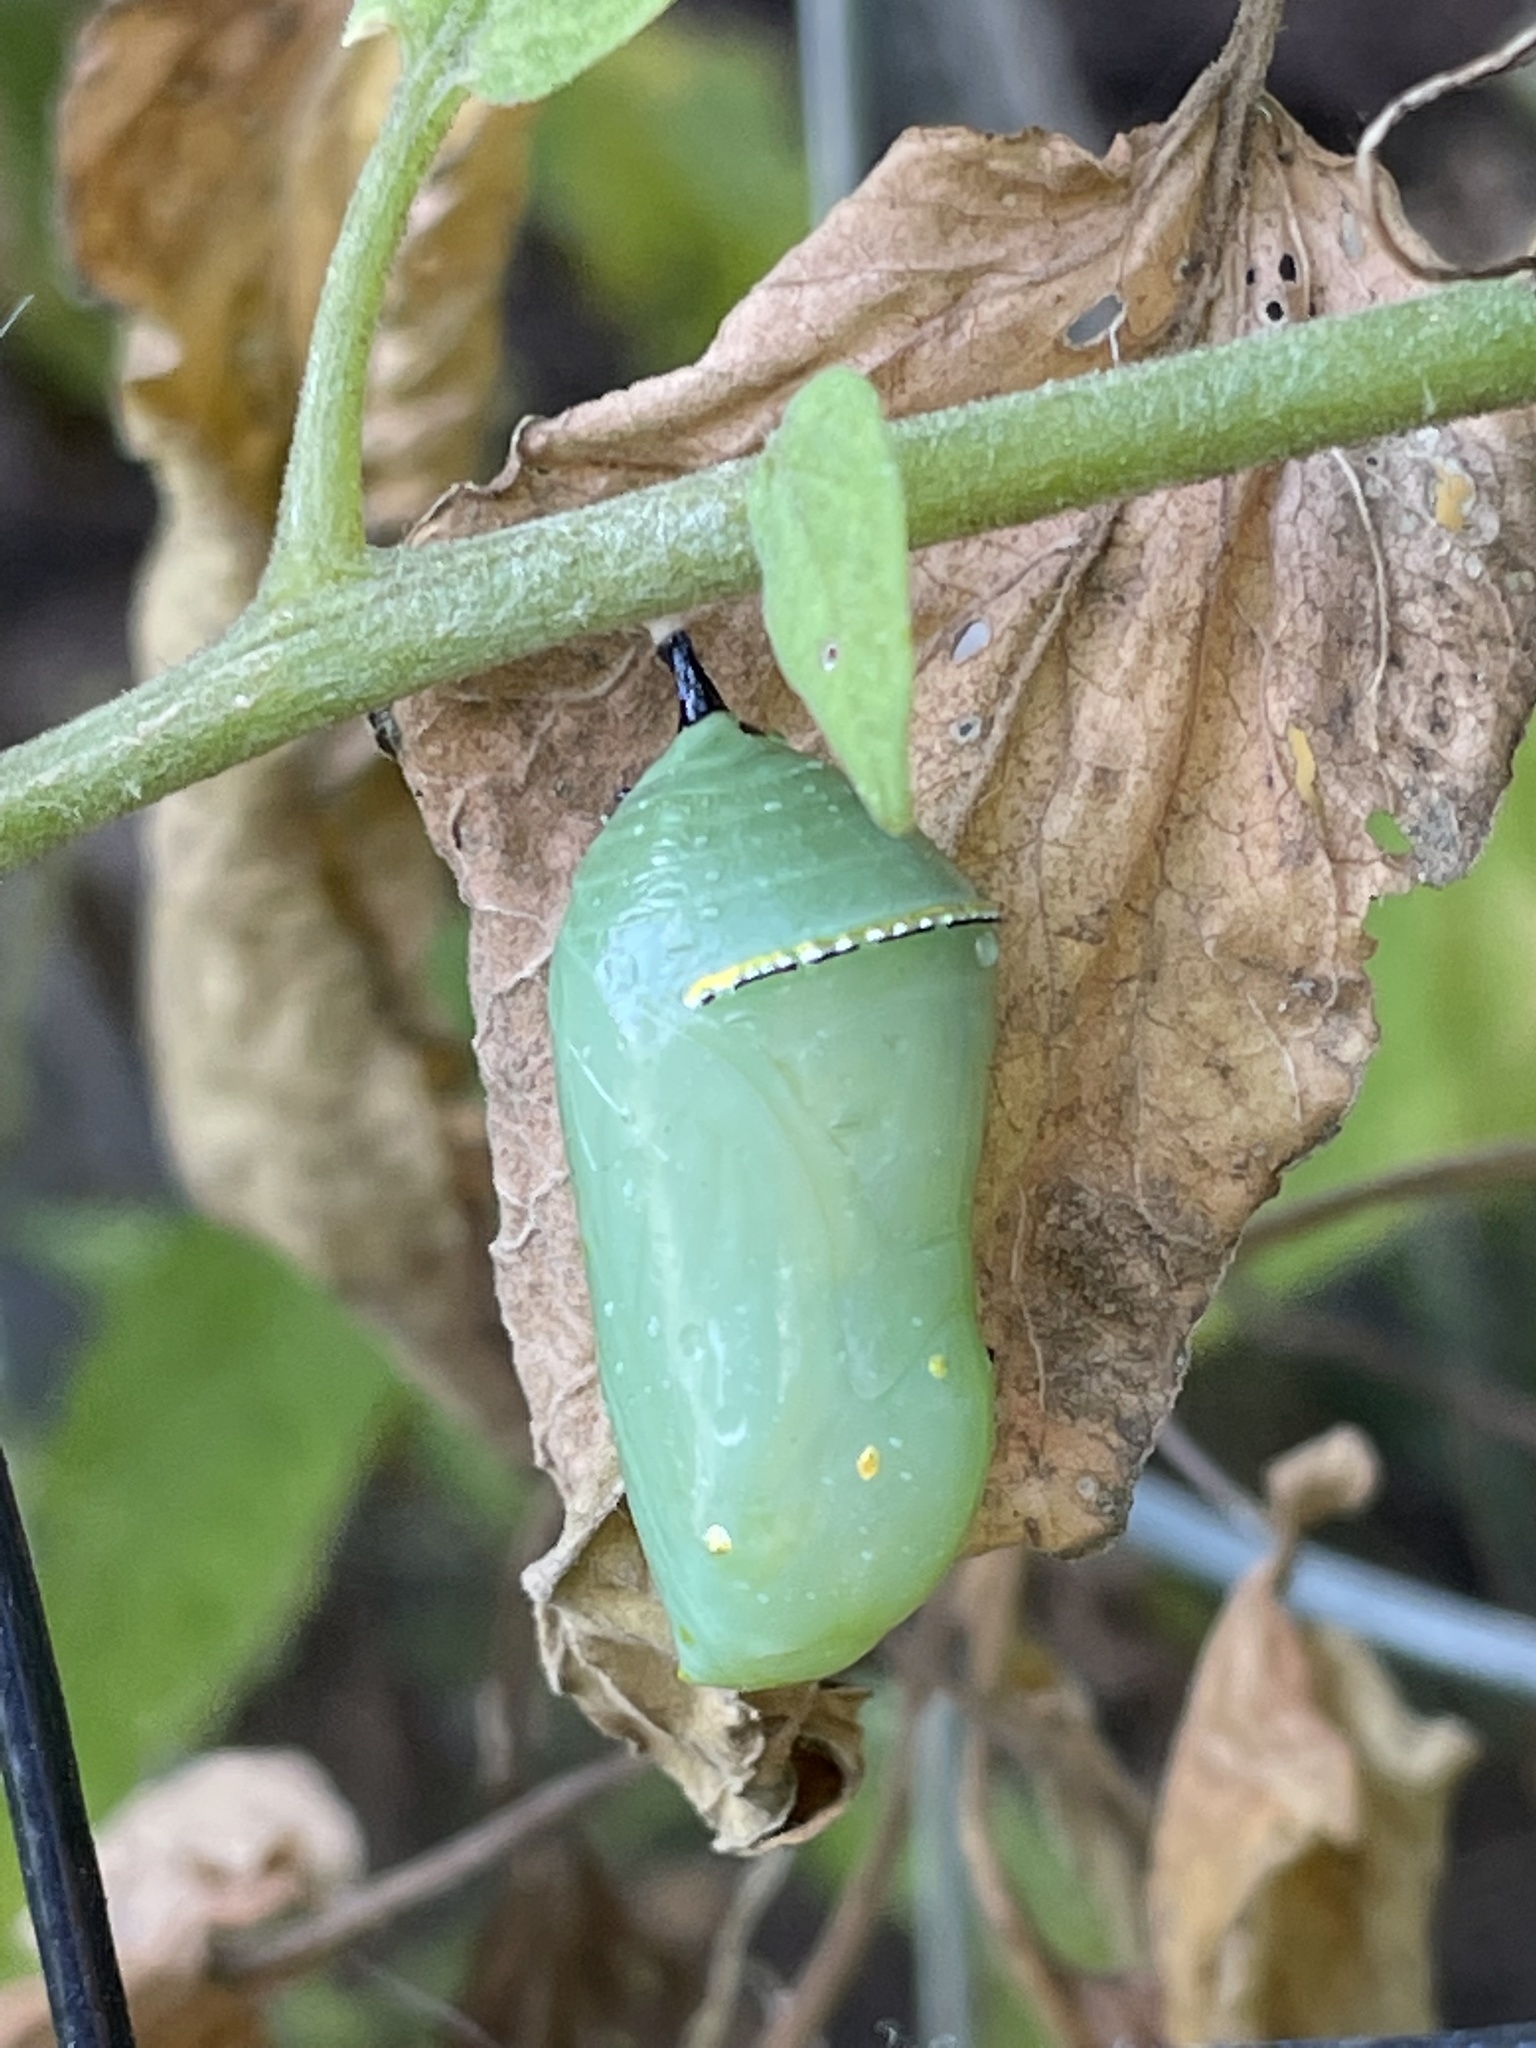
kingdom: Animalia
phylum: Arthropoda
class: Insecta
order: Lepidoptera
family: Nymphalidae
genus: Danaus
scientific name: Danaus plexippus
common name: Monarch
